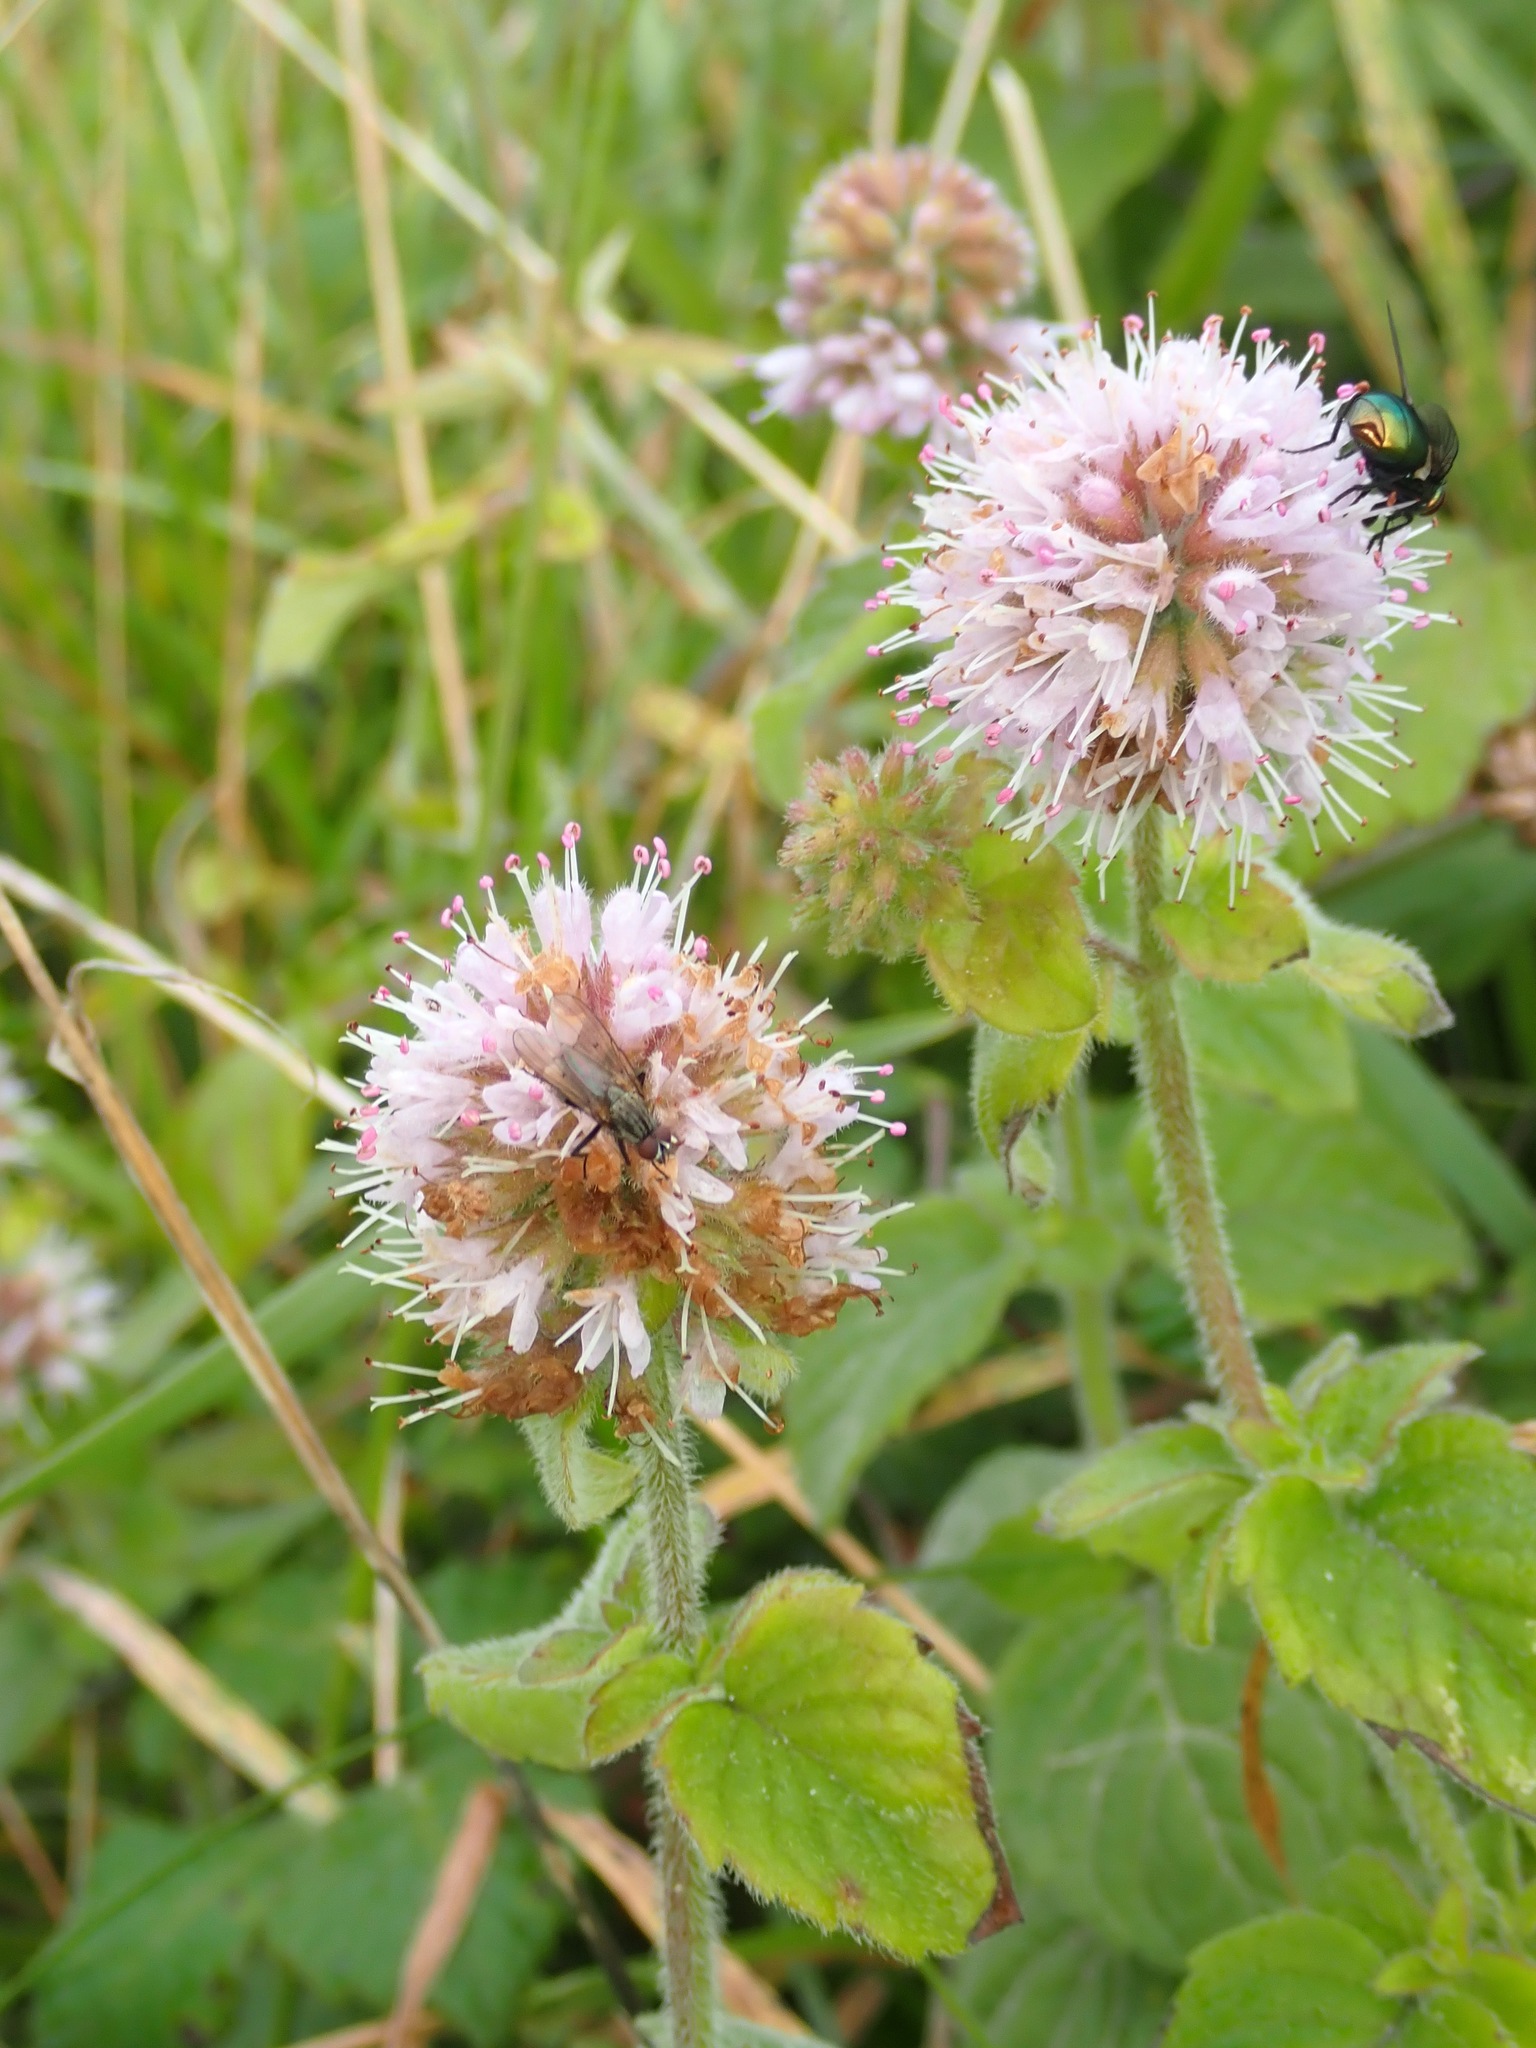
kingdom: Plantae
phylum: Tracheophyta
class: Magnoliopsida
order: Lamiales
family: Lamiaceae
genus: Mentha
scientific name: Mentha aquatica
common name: Water mint
